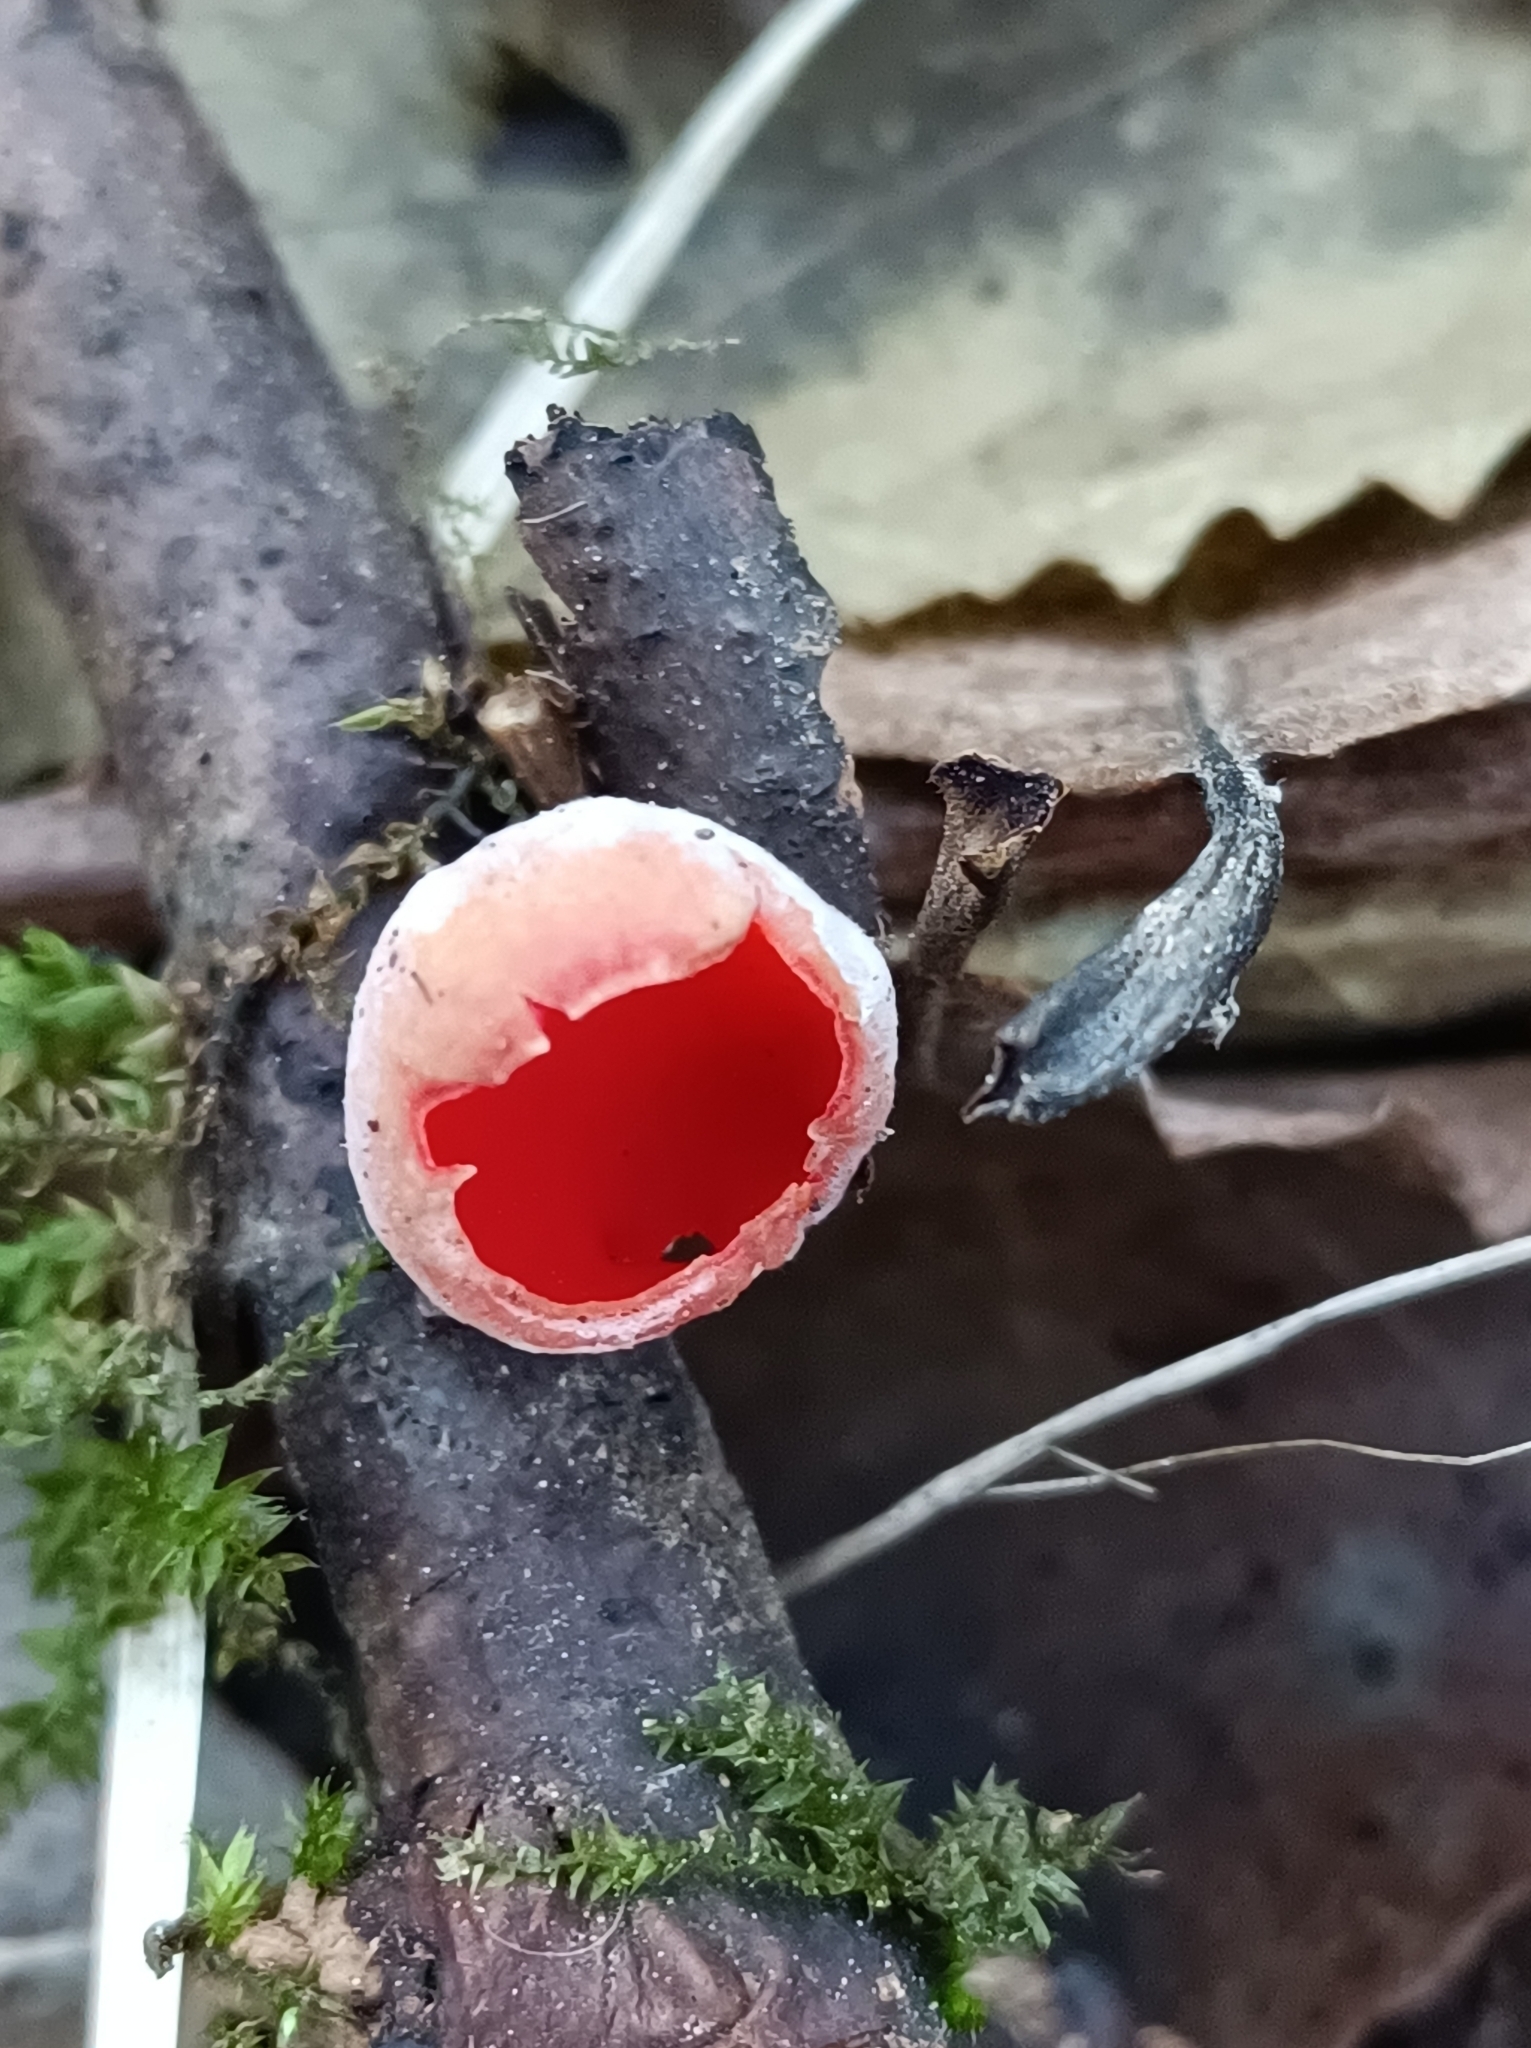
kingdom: Fungi
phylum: Ascomycota
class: Pezizomycetes
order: Pezizales
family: Sarcoscyphaceae
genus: Sarcoscypha
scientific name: Sarcoscypha
